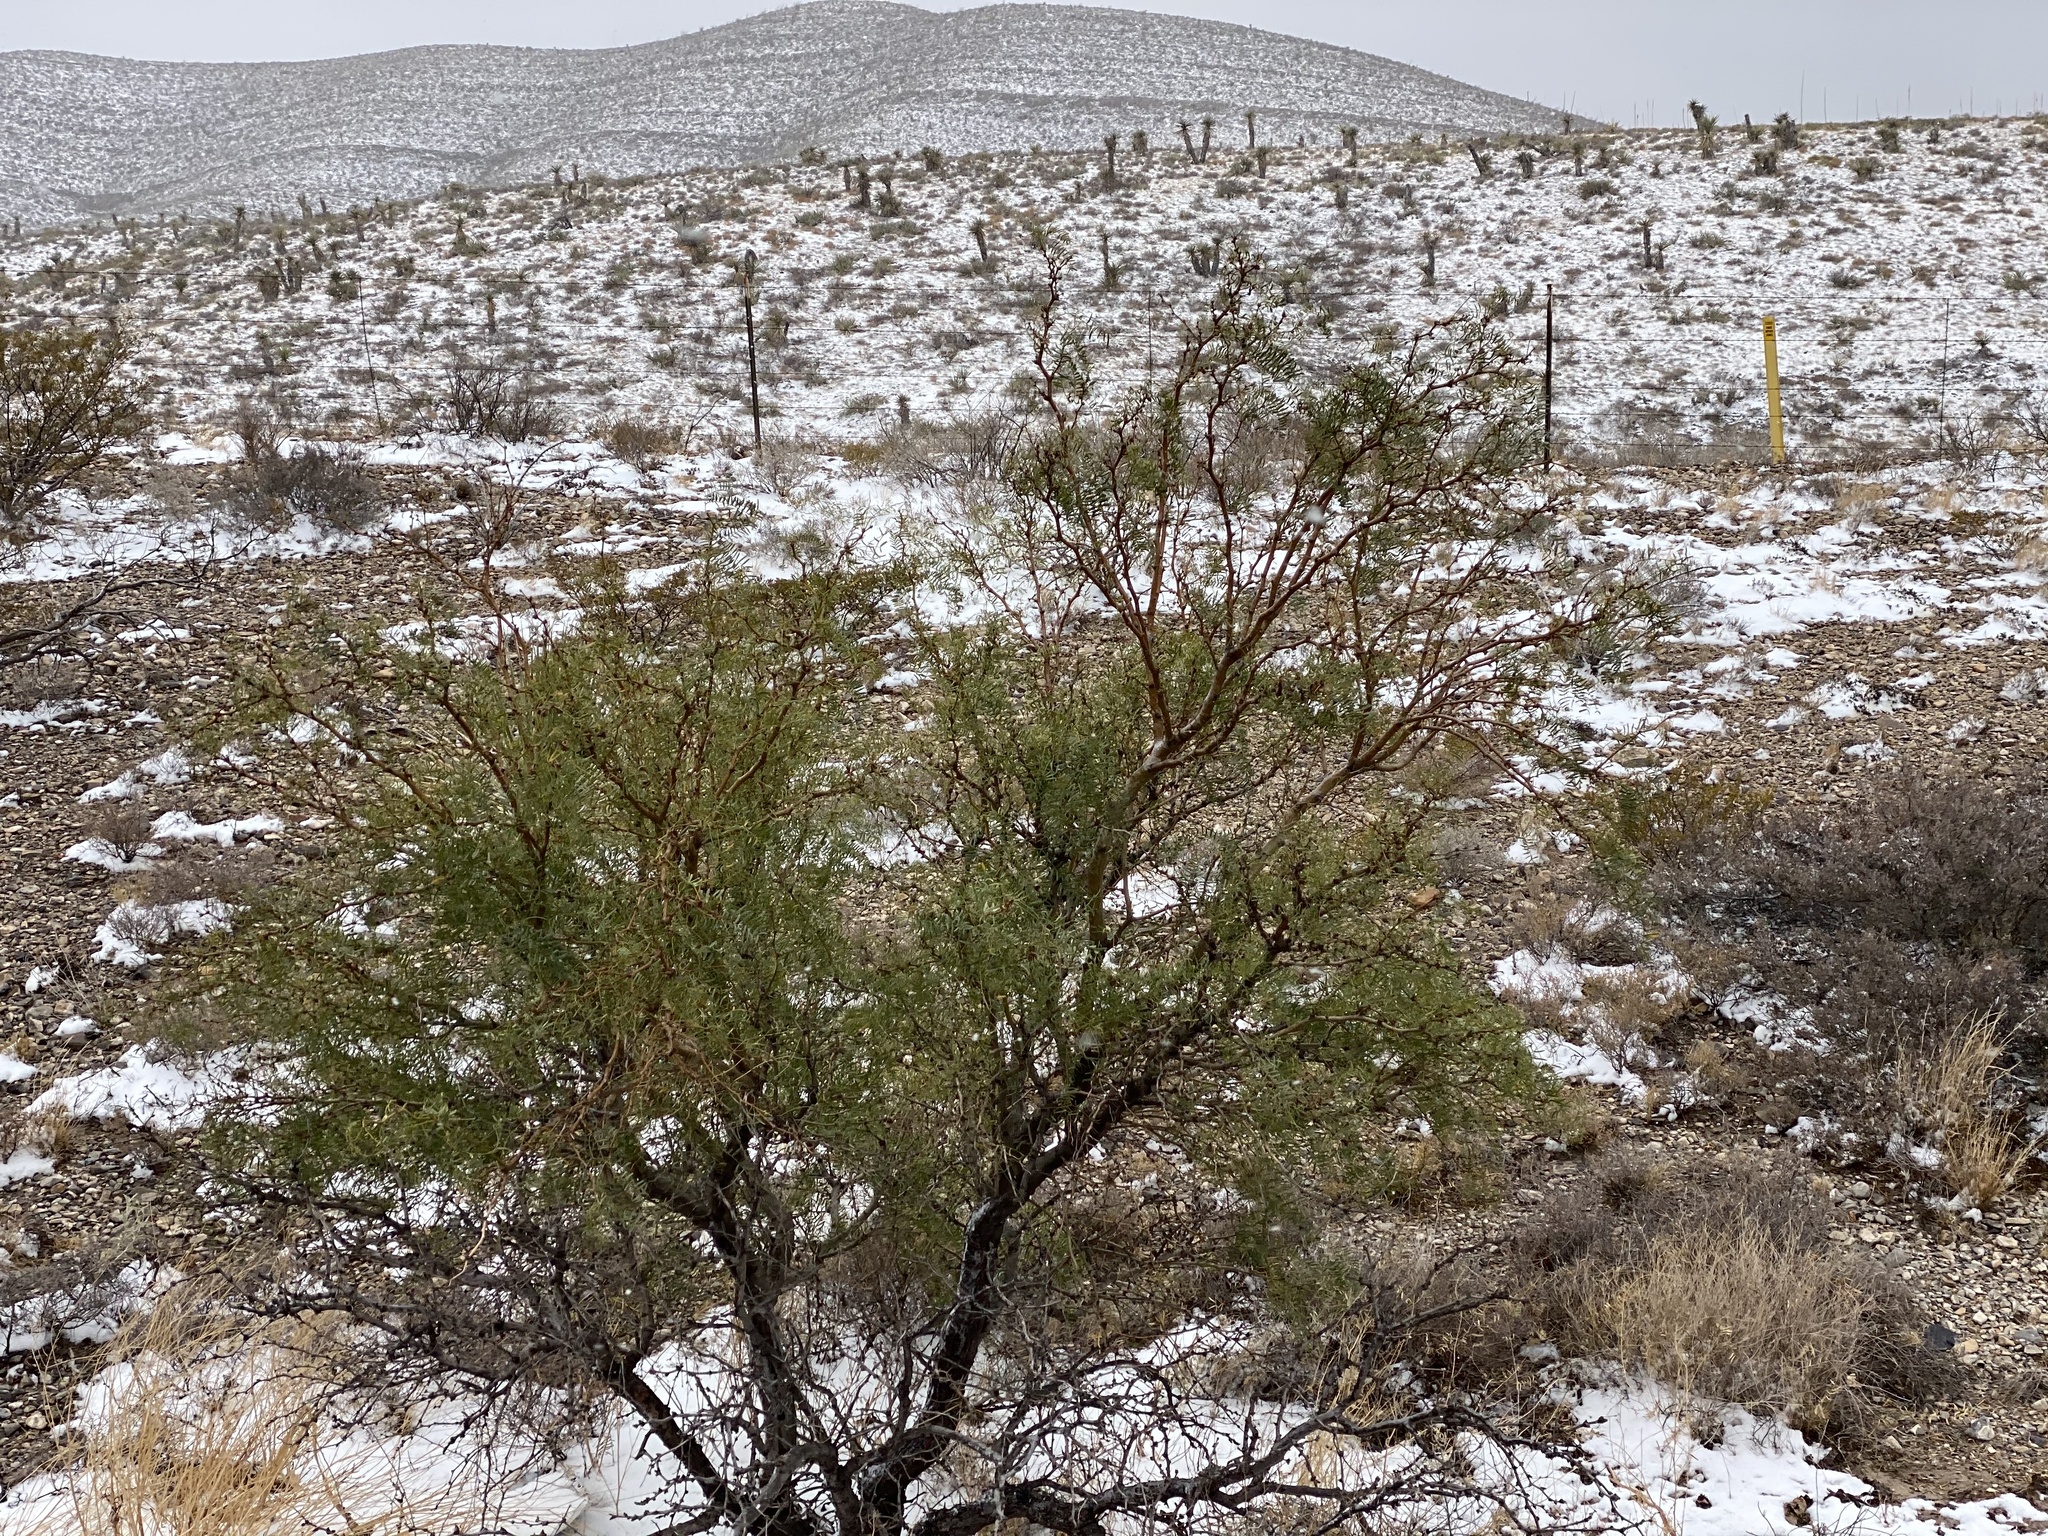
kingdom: Plantae
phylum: Tracheophyta
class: Magnoliopsida
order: Fabales
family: Fabaceae
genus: Prosopis
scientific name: Prosopis glandulosa
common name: Honey mesquite
